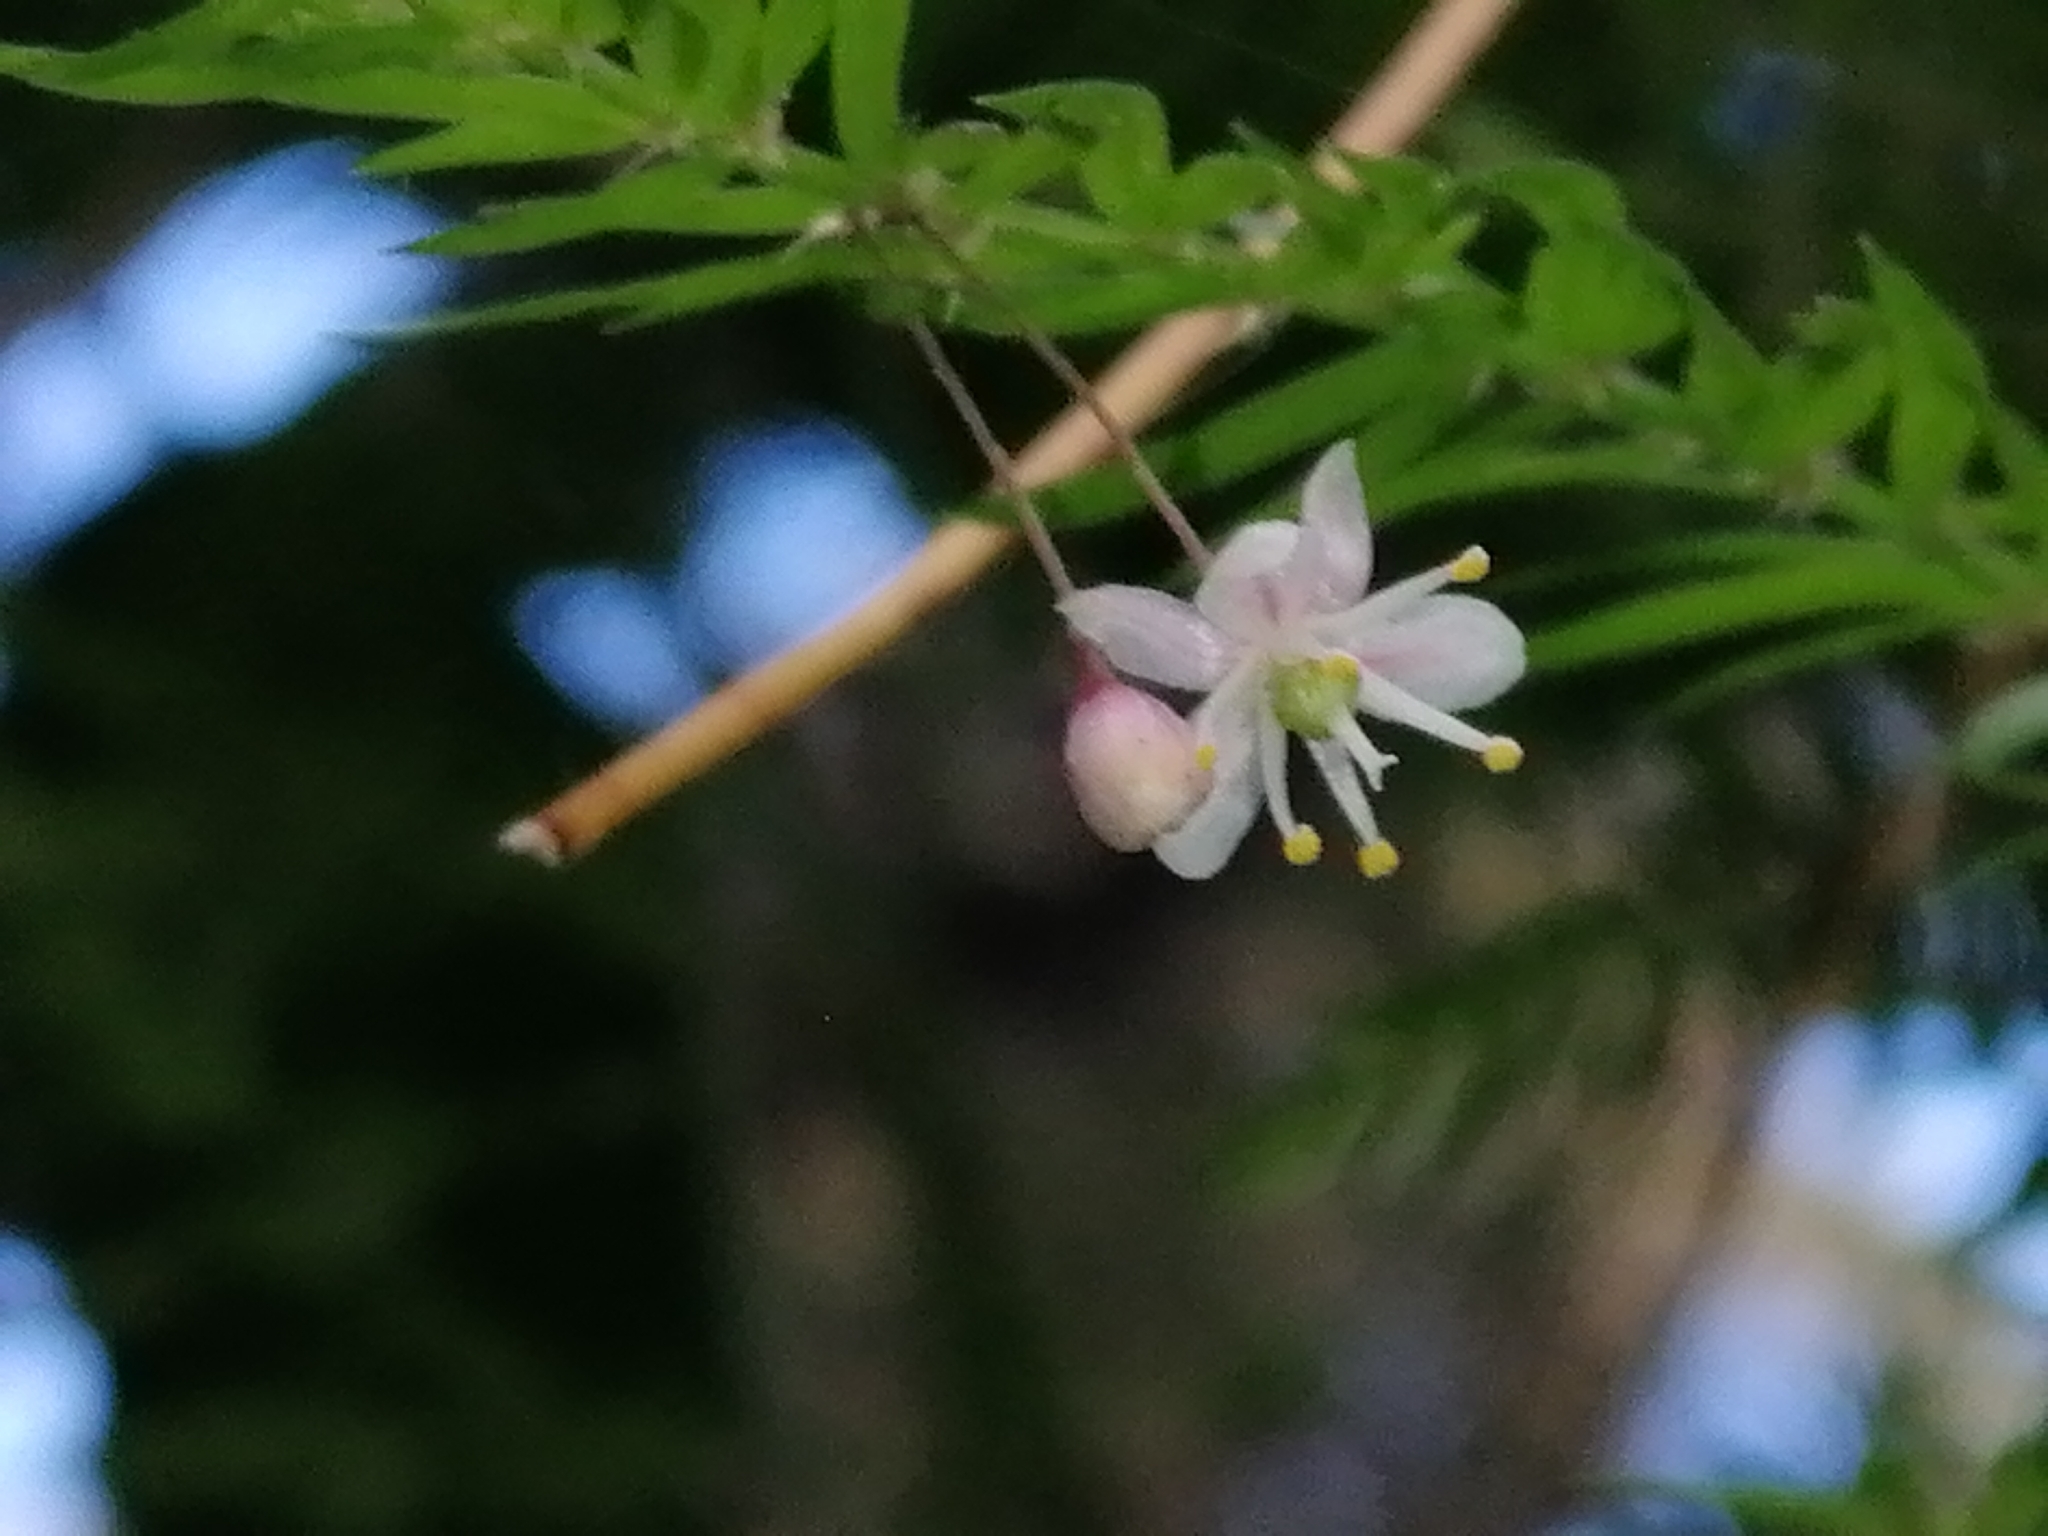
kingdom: Plantae
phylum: Tracheophyta
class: Liliopsida
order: Asparagales
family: Asparagaceae
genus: Asparagus
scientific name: Asparagus scandens
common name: Asparagus-fern
